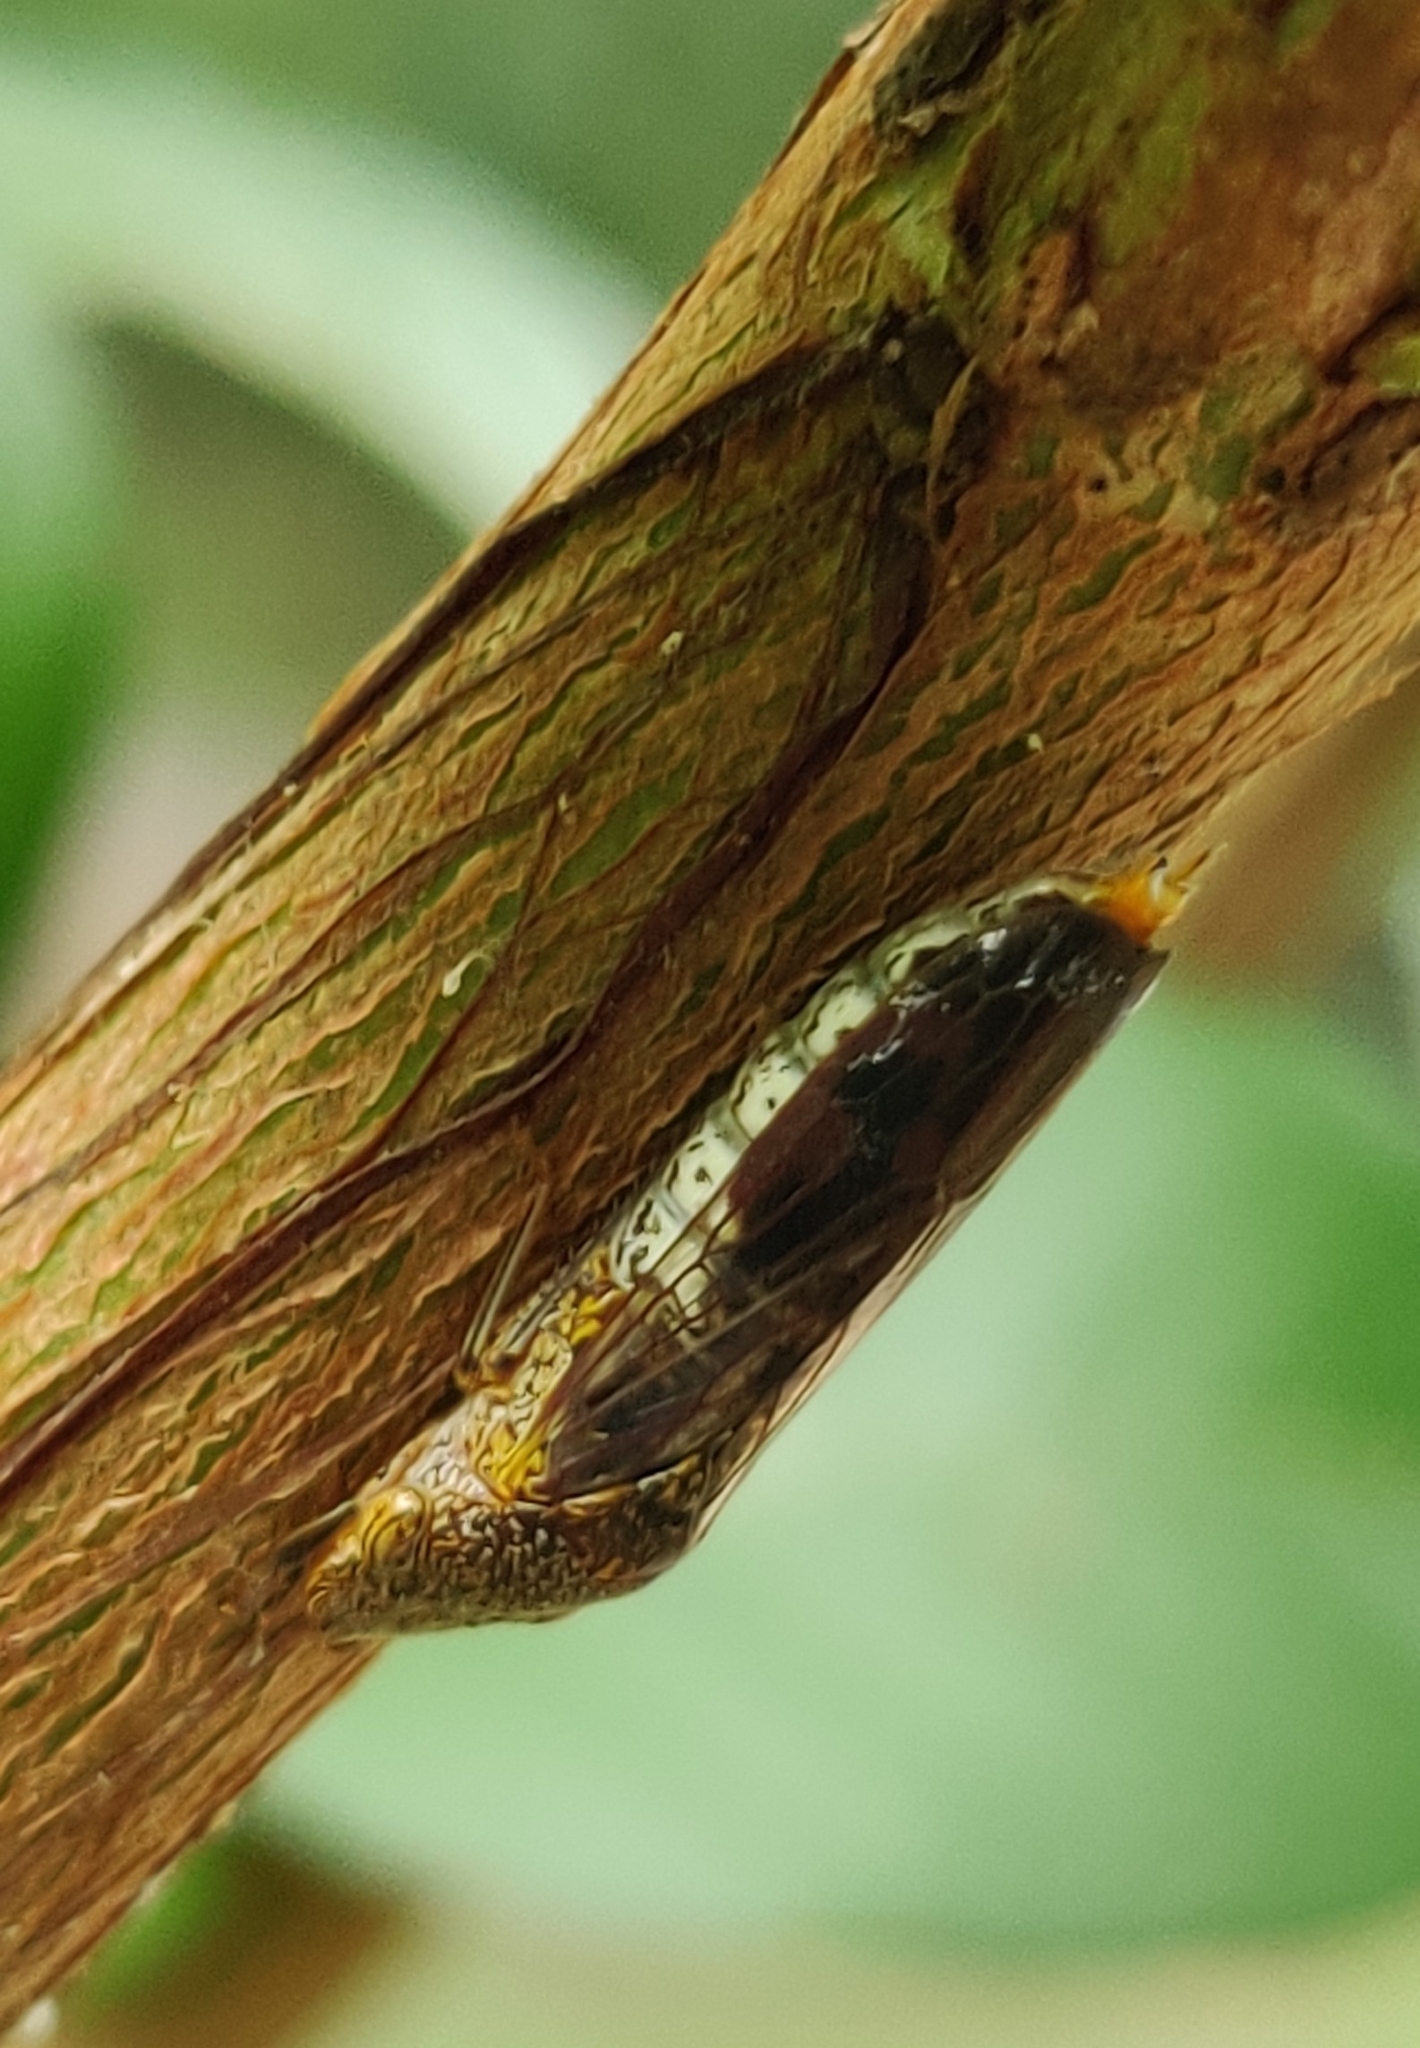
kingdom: Animalia
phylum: Arthropoda
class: Insecta
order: Hemiptera
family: Cicadellidae
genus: Homalodisca
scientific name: Homalodisca vitripennis
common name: Glassy-winged sharpshooter
